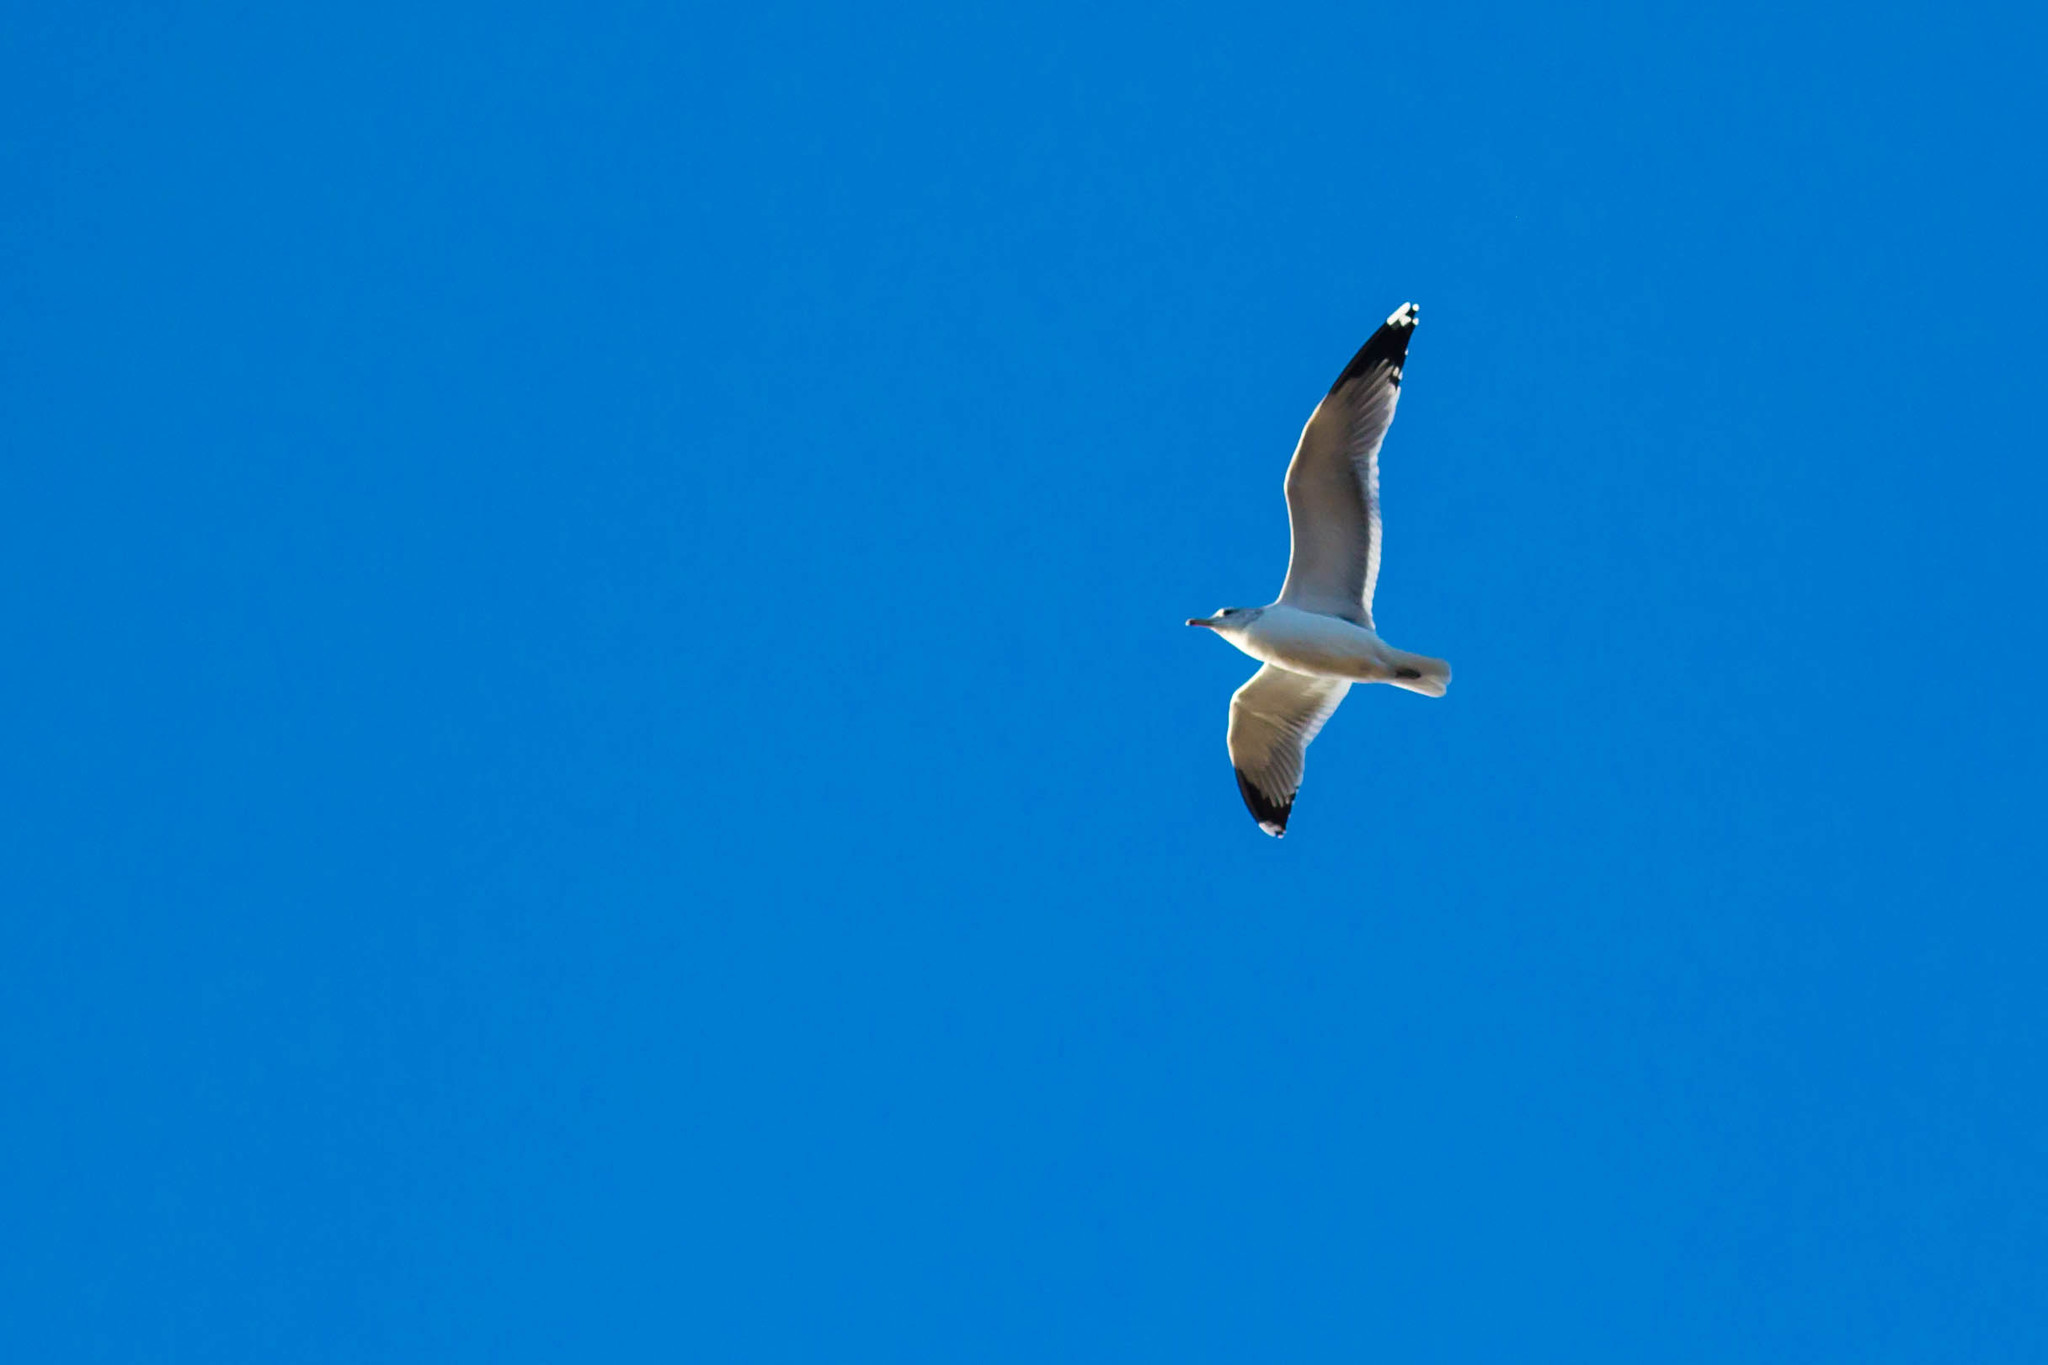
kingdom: Animalia
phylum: Chordata
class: Aves
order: Charadriiformes
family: Laridae
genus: Larus
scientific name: Larus californicus
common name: California gull
